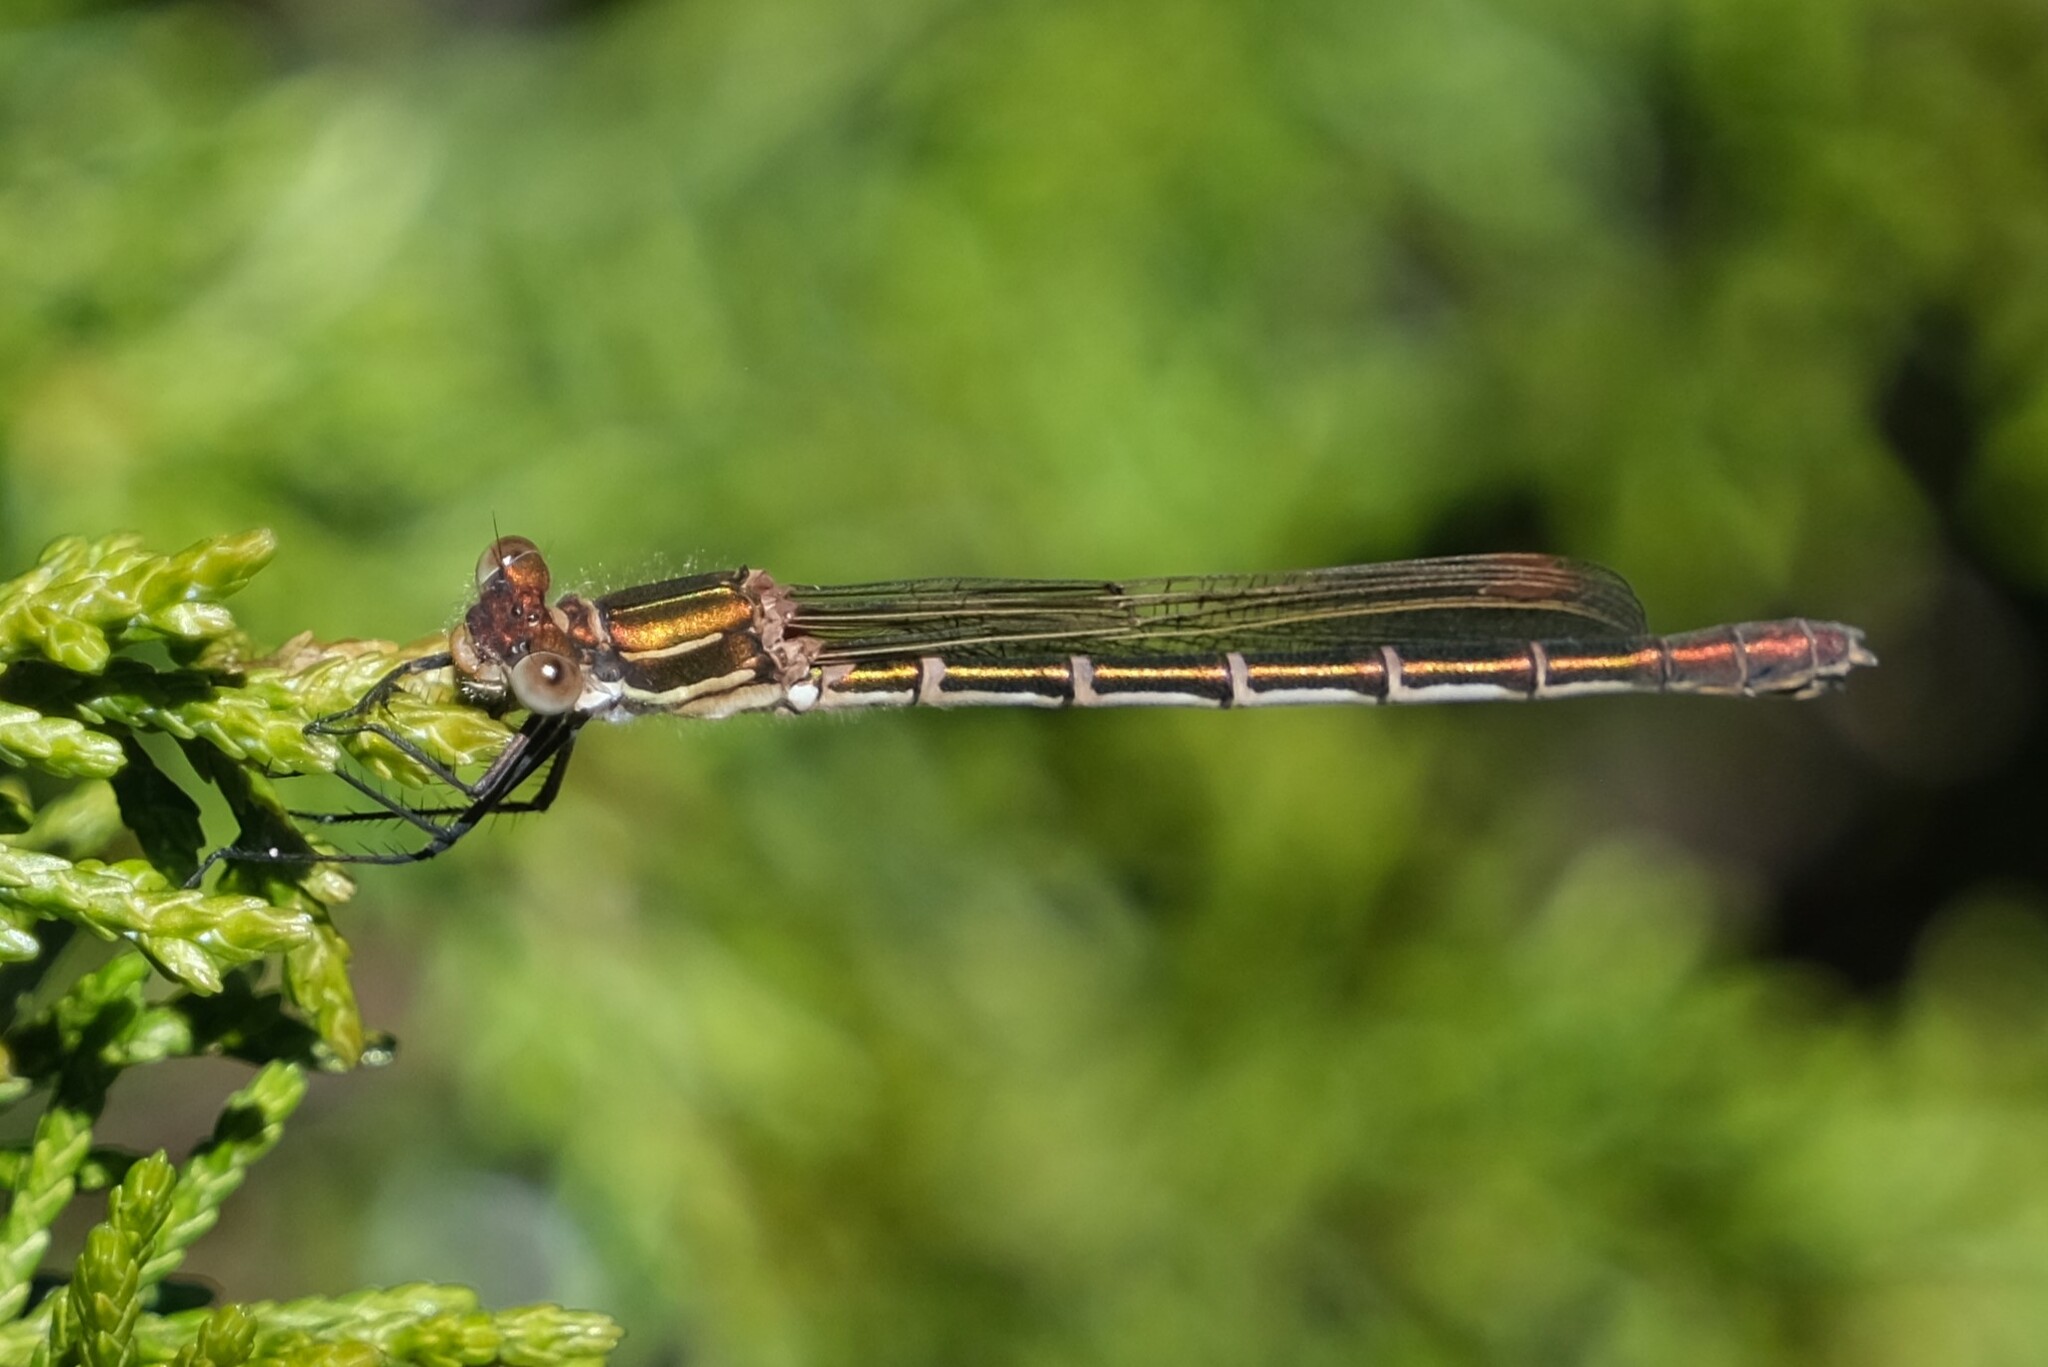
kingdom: Animalia
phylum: Arthropoda
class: Insecta
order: Odonata
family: Lestidae
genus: Austrolestes
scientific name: Austrolestes cingulatus
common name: Metallic ringtail
